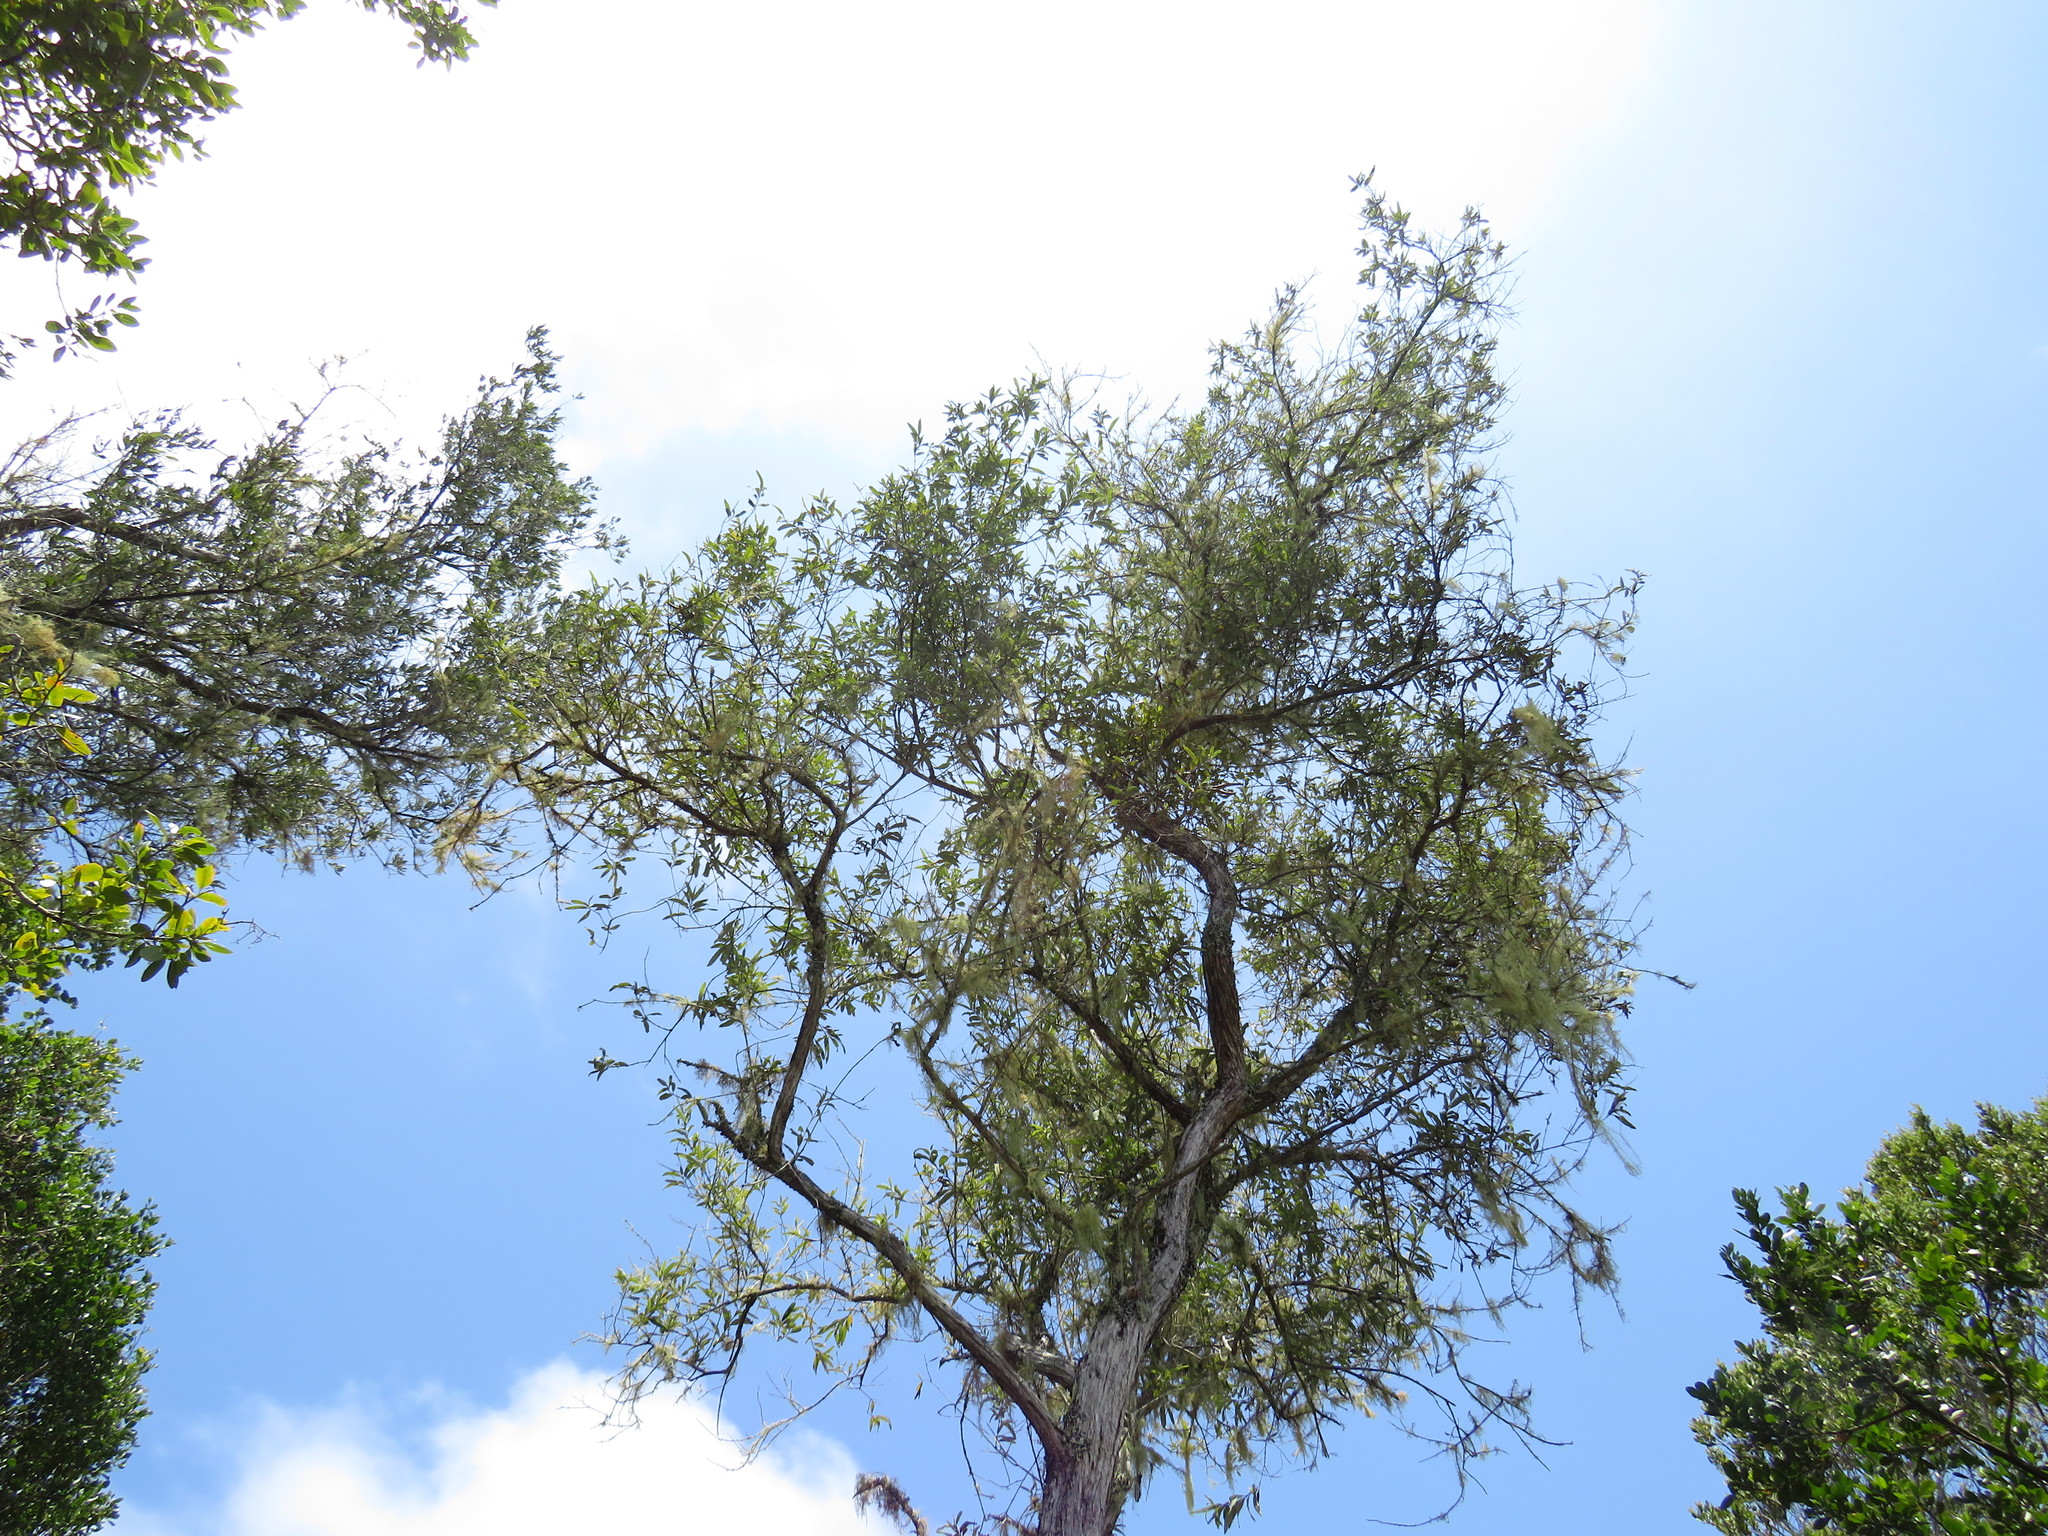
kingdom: Plantae
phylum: Tracheophyta
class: Magnoliopsida
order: Lamiales
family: Scrophulariaceae
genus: Buddleja
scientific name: Buddleja saligna
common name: False olive
